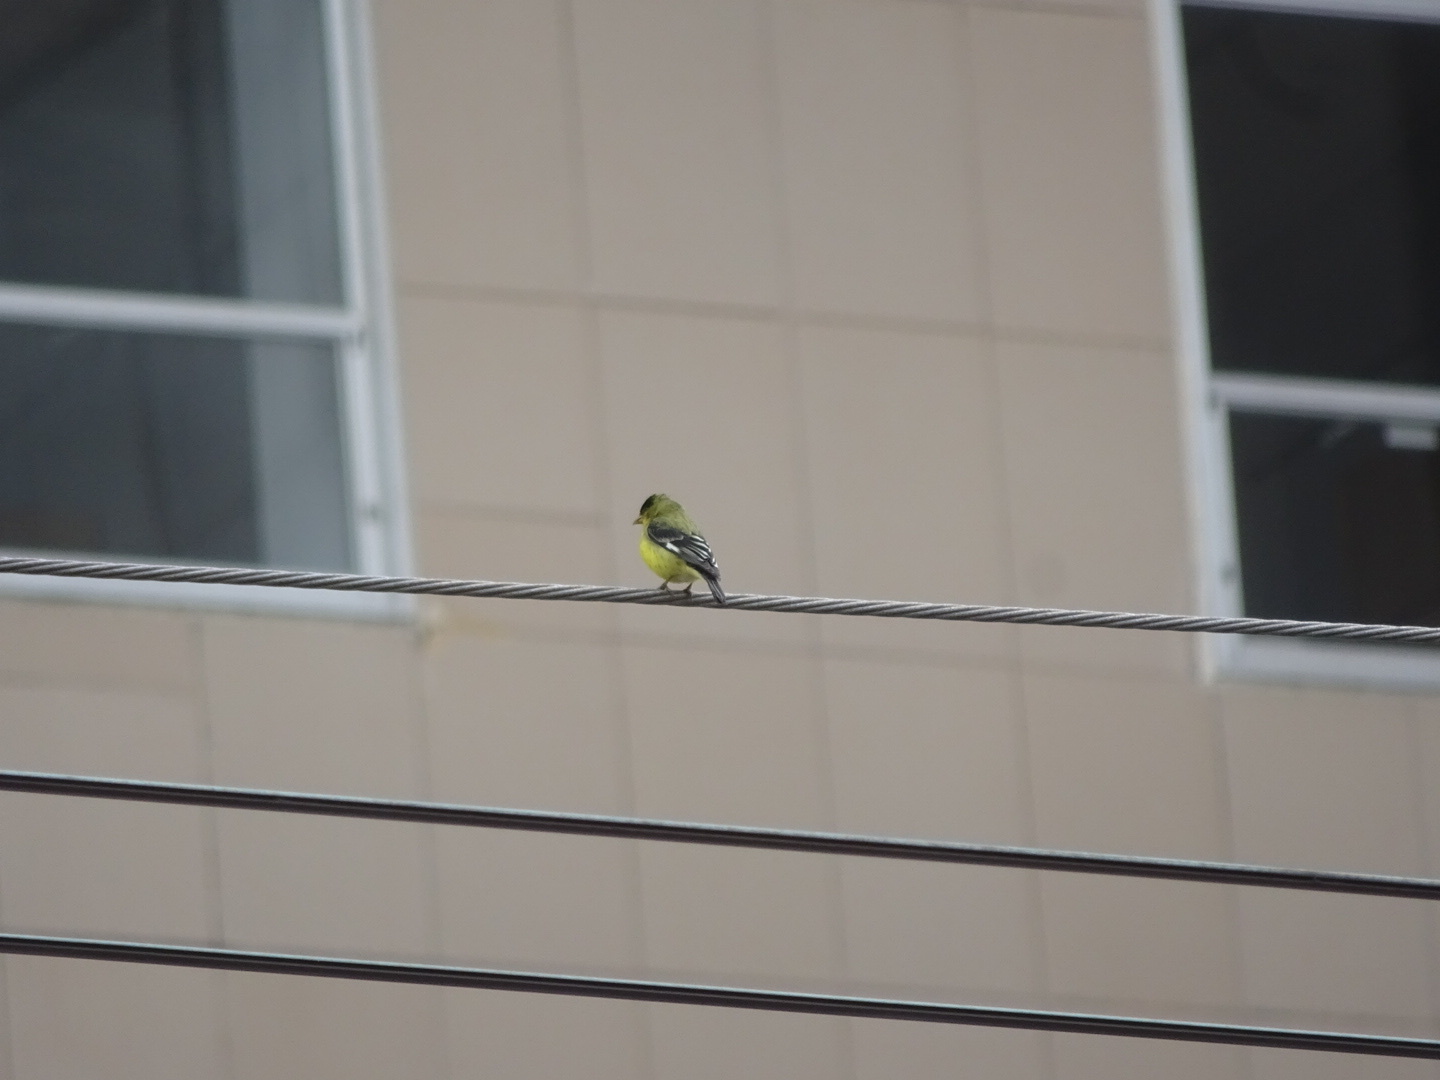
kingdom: Animalia
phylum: Chordata
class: Aves
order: Passeriformes
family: Fringillidae
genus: Spinus
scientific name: Spinus psaltria
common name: Lesser goldfinch
